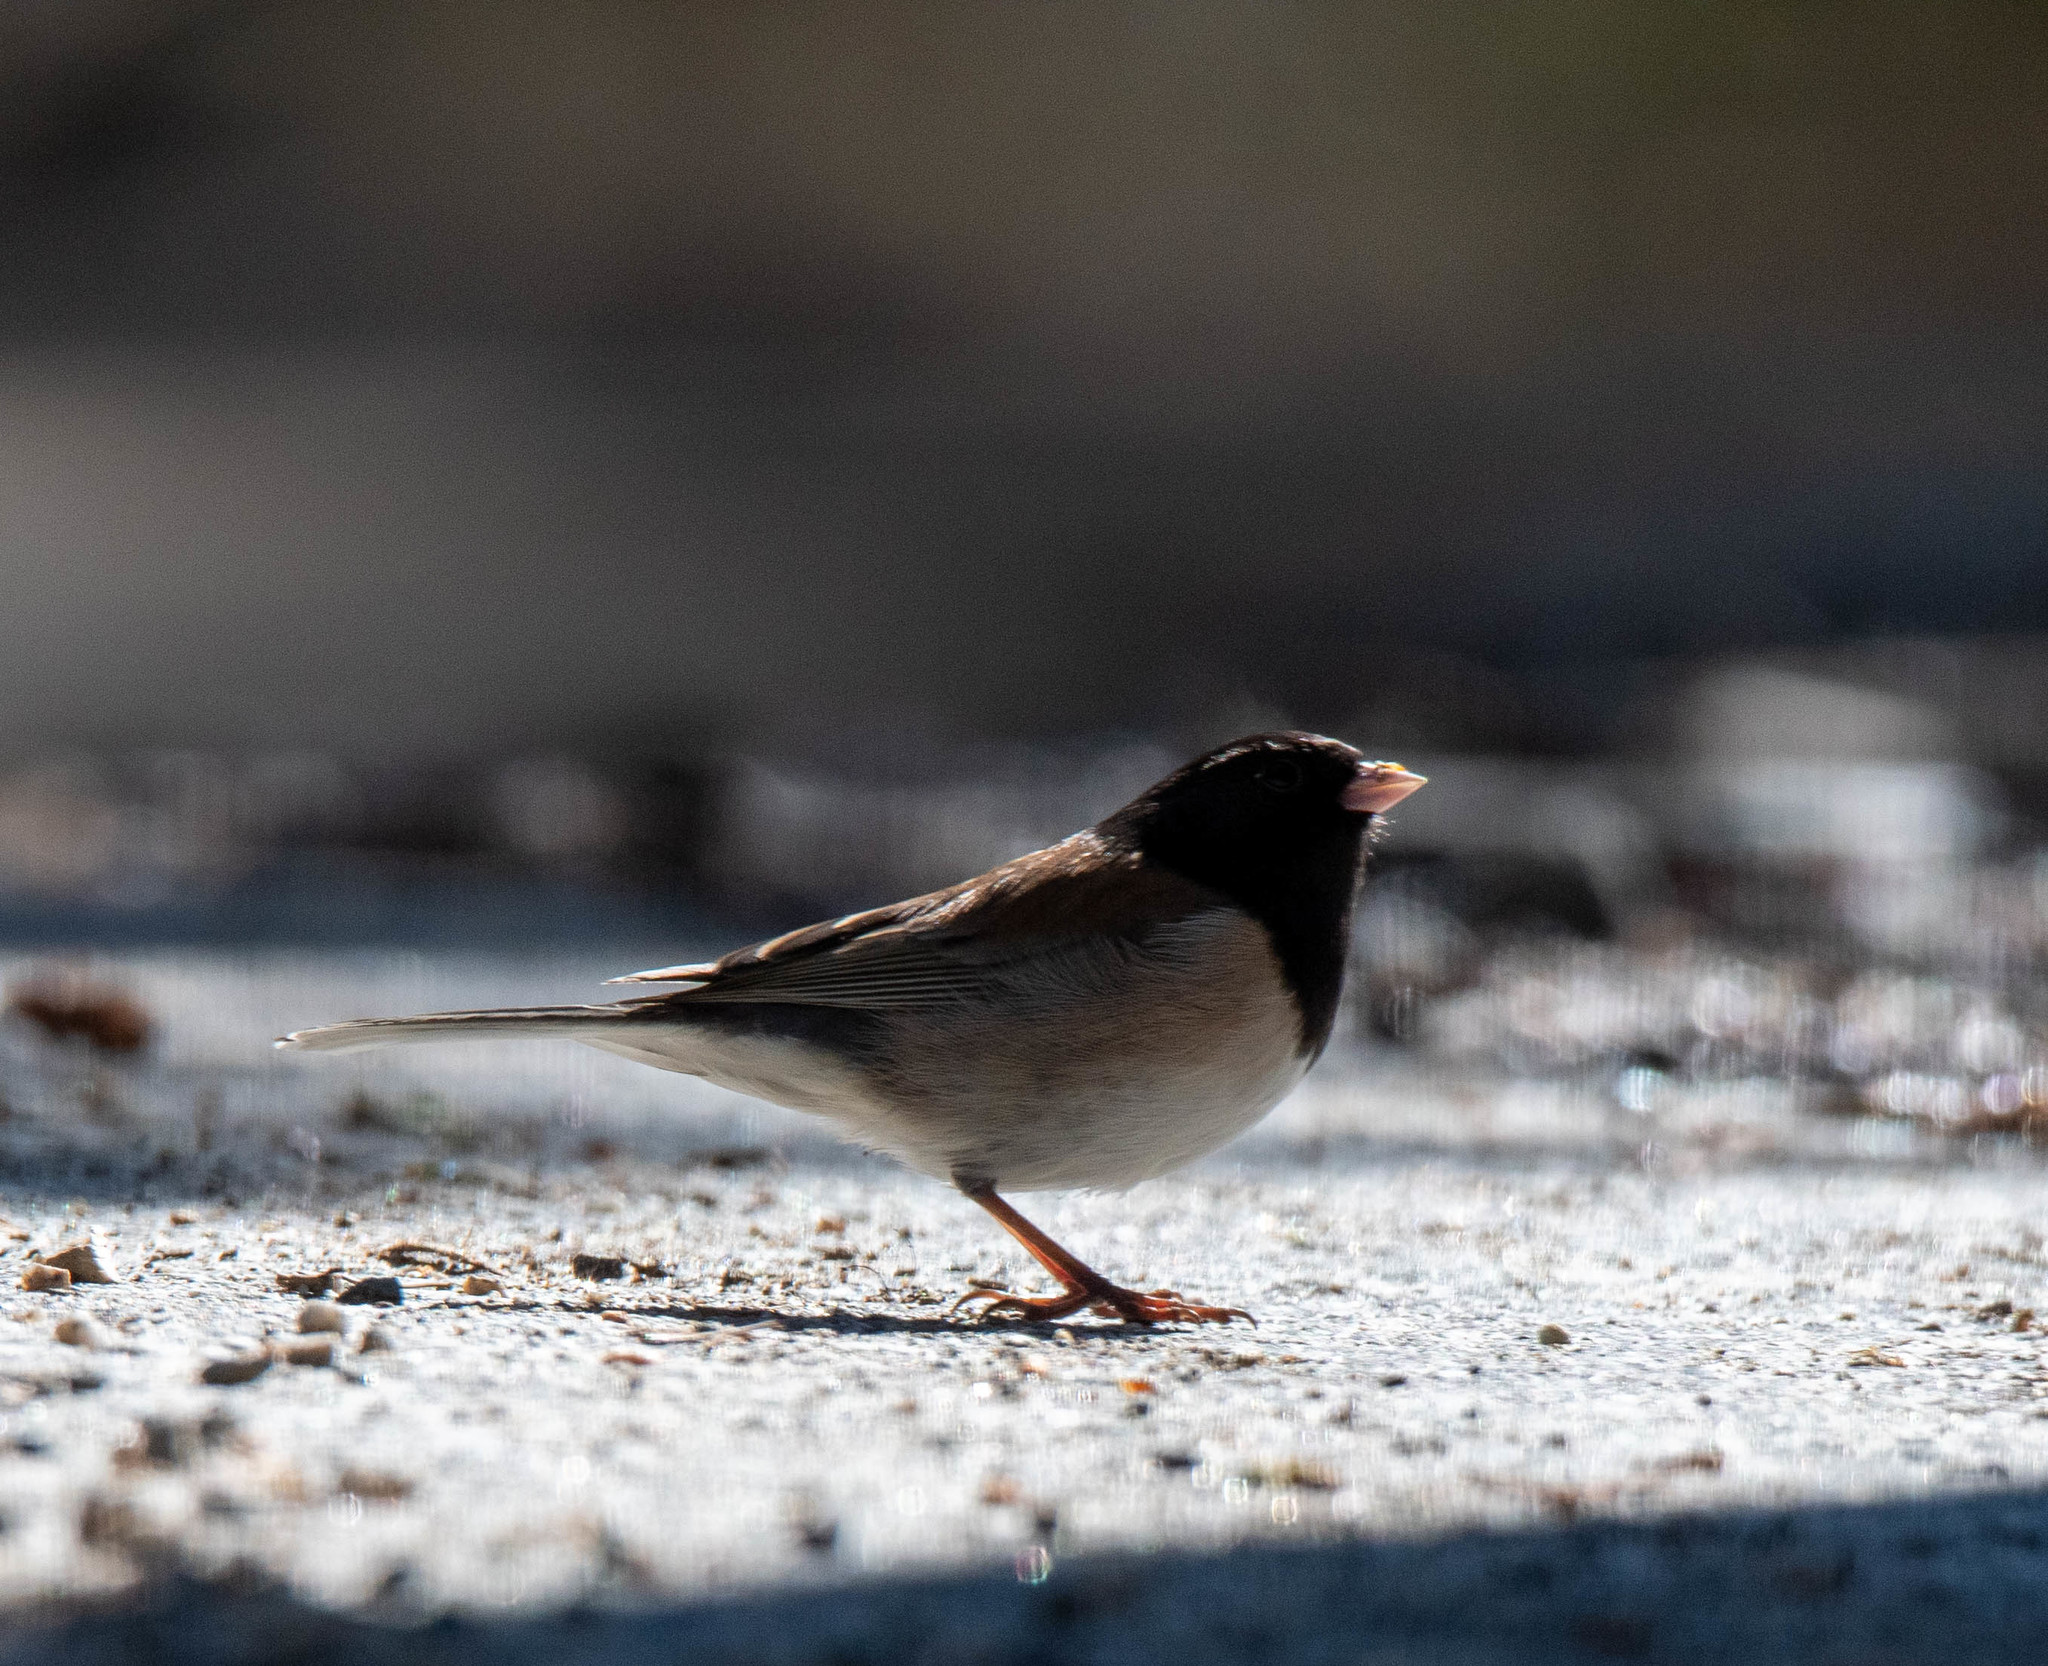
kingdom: Animalia
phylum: Chordata
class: Aves
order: Passeriformes
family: Passerellidae
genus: Junco
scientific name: Junco hyemalis
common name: Dark-eyed junco
